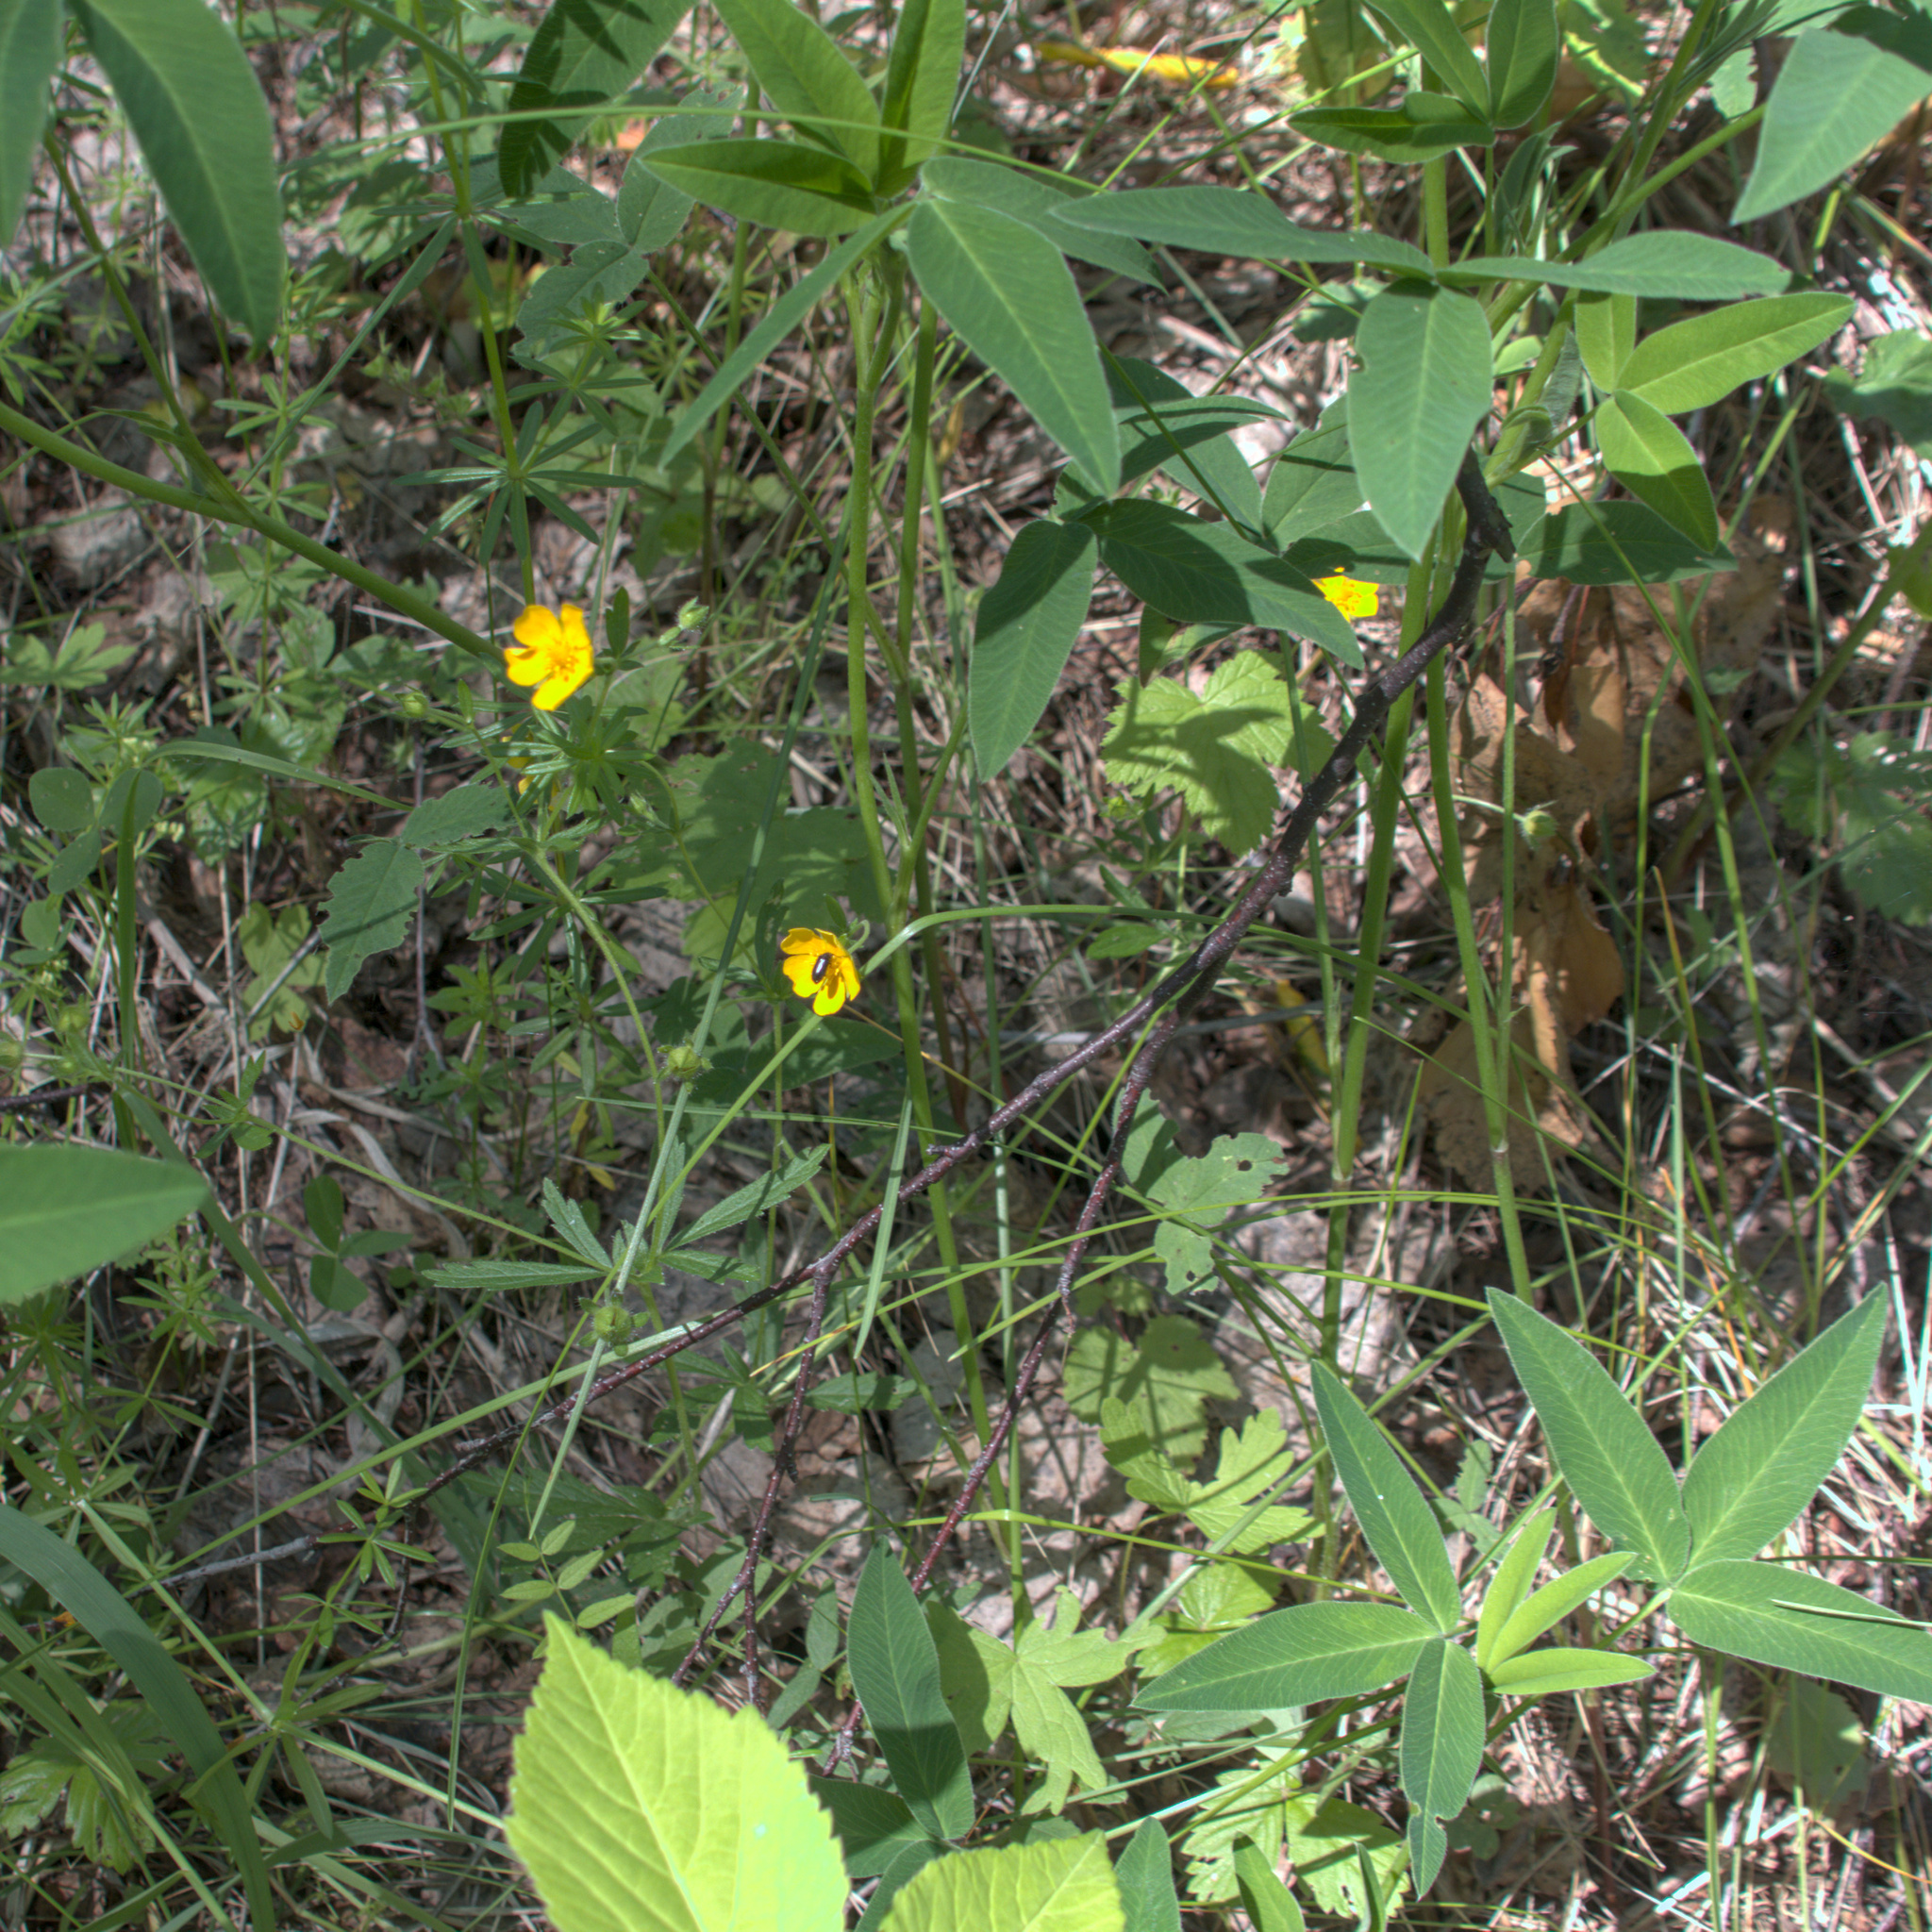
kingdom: Plantae
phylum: Tracheophyta
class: Magnoliopsida
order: Rosales
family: Rosaceae
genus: Potentilla
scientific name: Potentilla thuringiaca
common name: European cinquefoil
